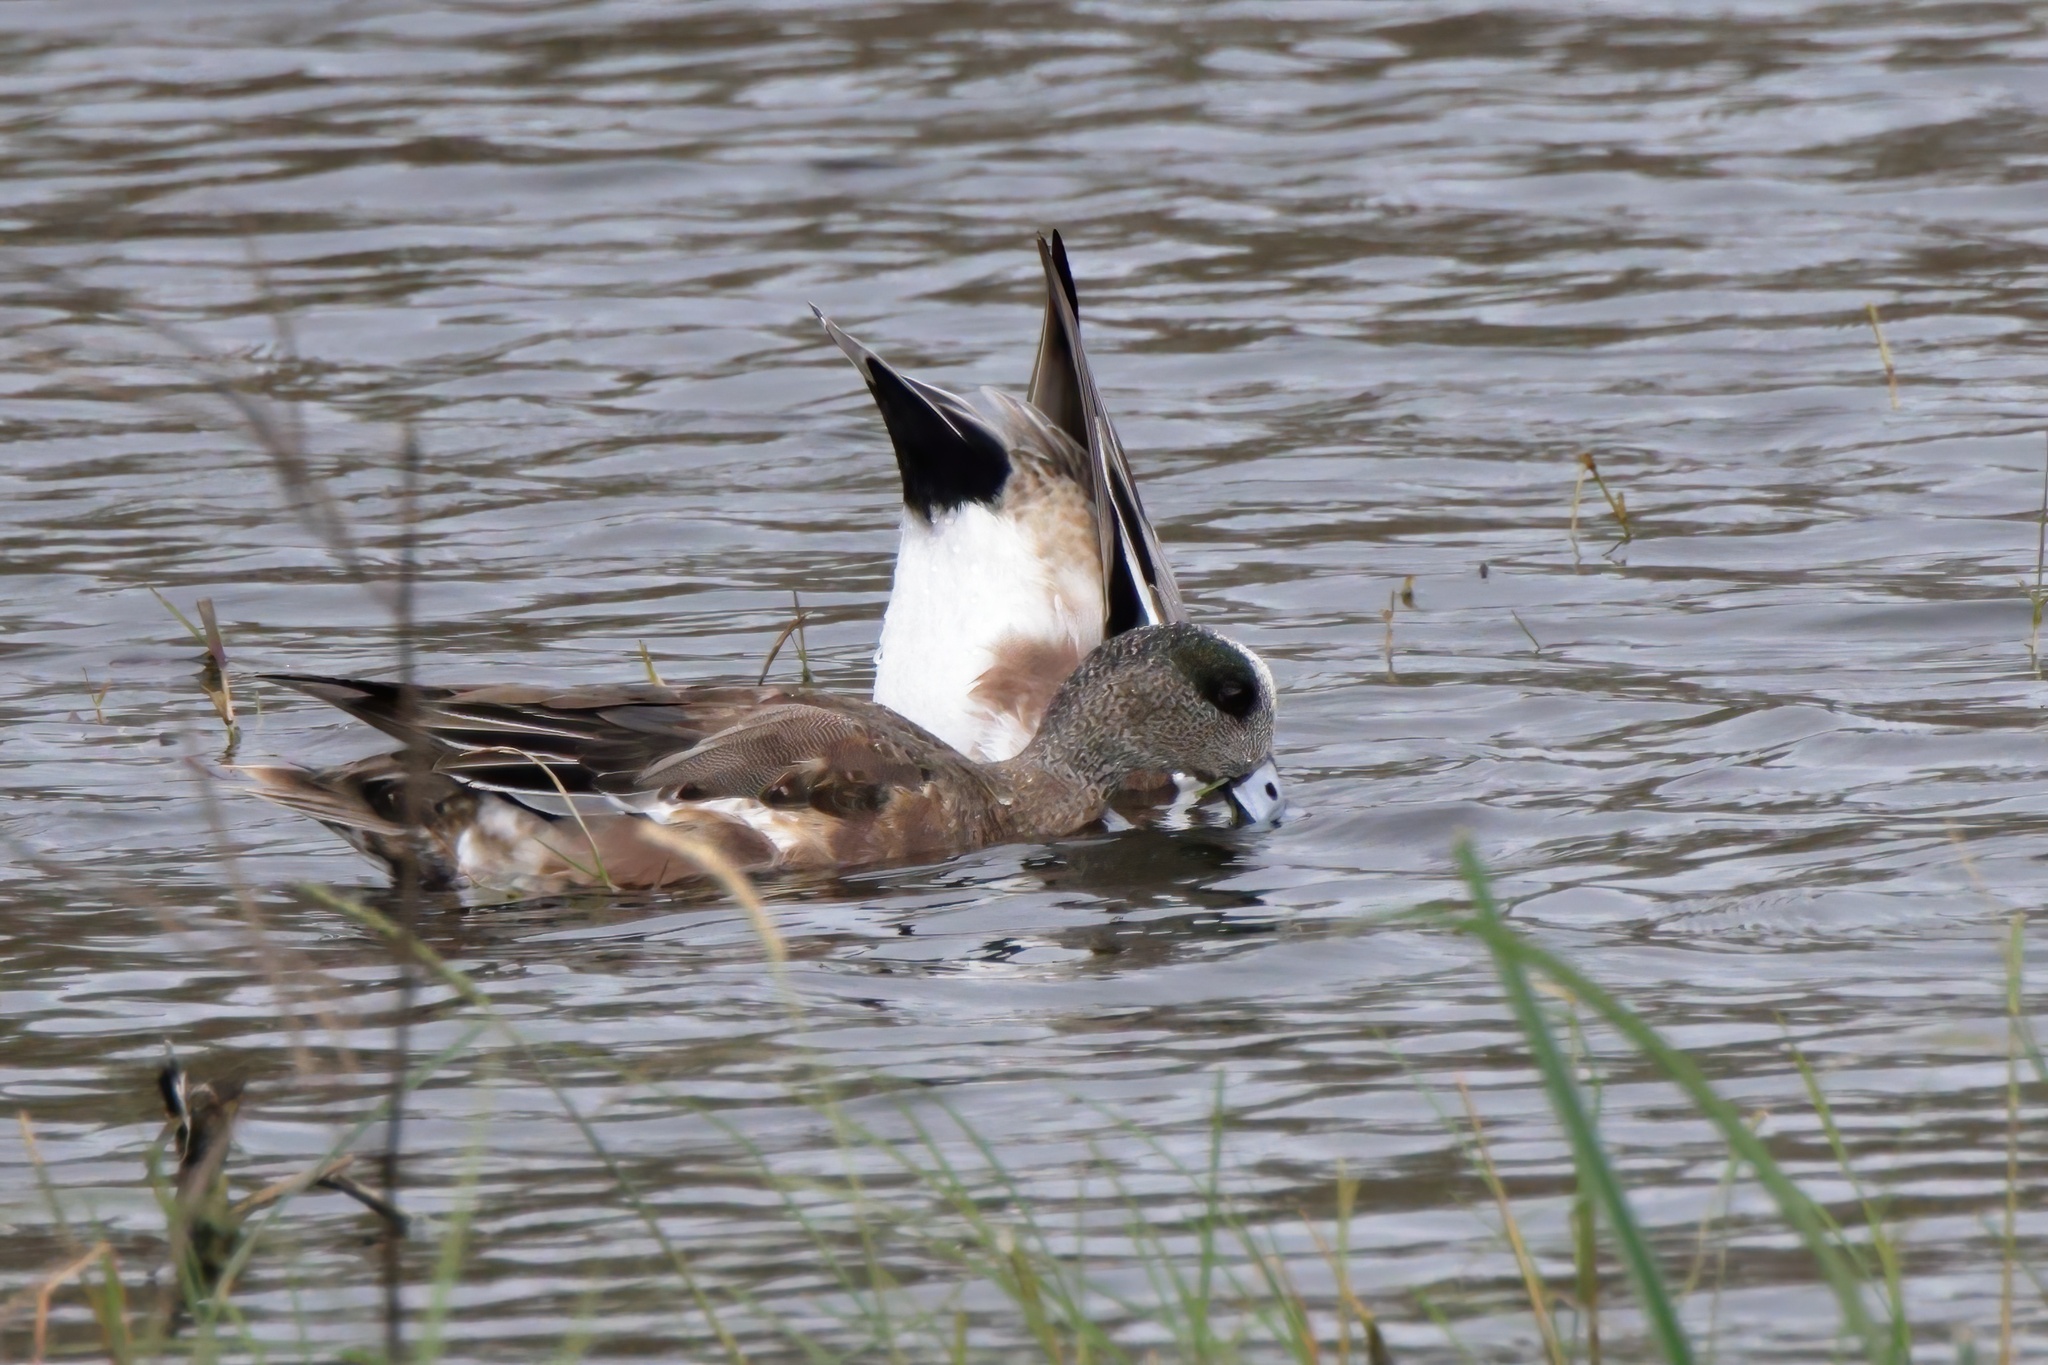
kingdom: Animalia
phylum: Chordata
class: Aves
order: Anseriformes
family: Anatidae
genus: Mareca
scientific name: Mareca americana
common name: American wigeon
